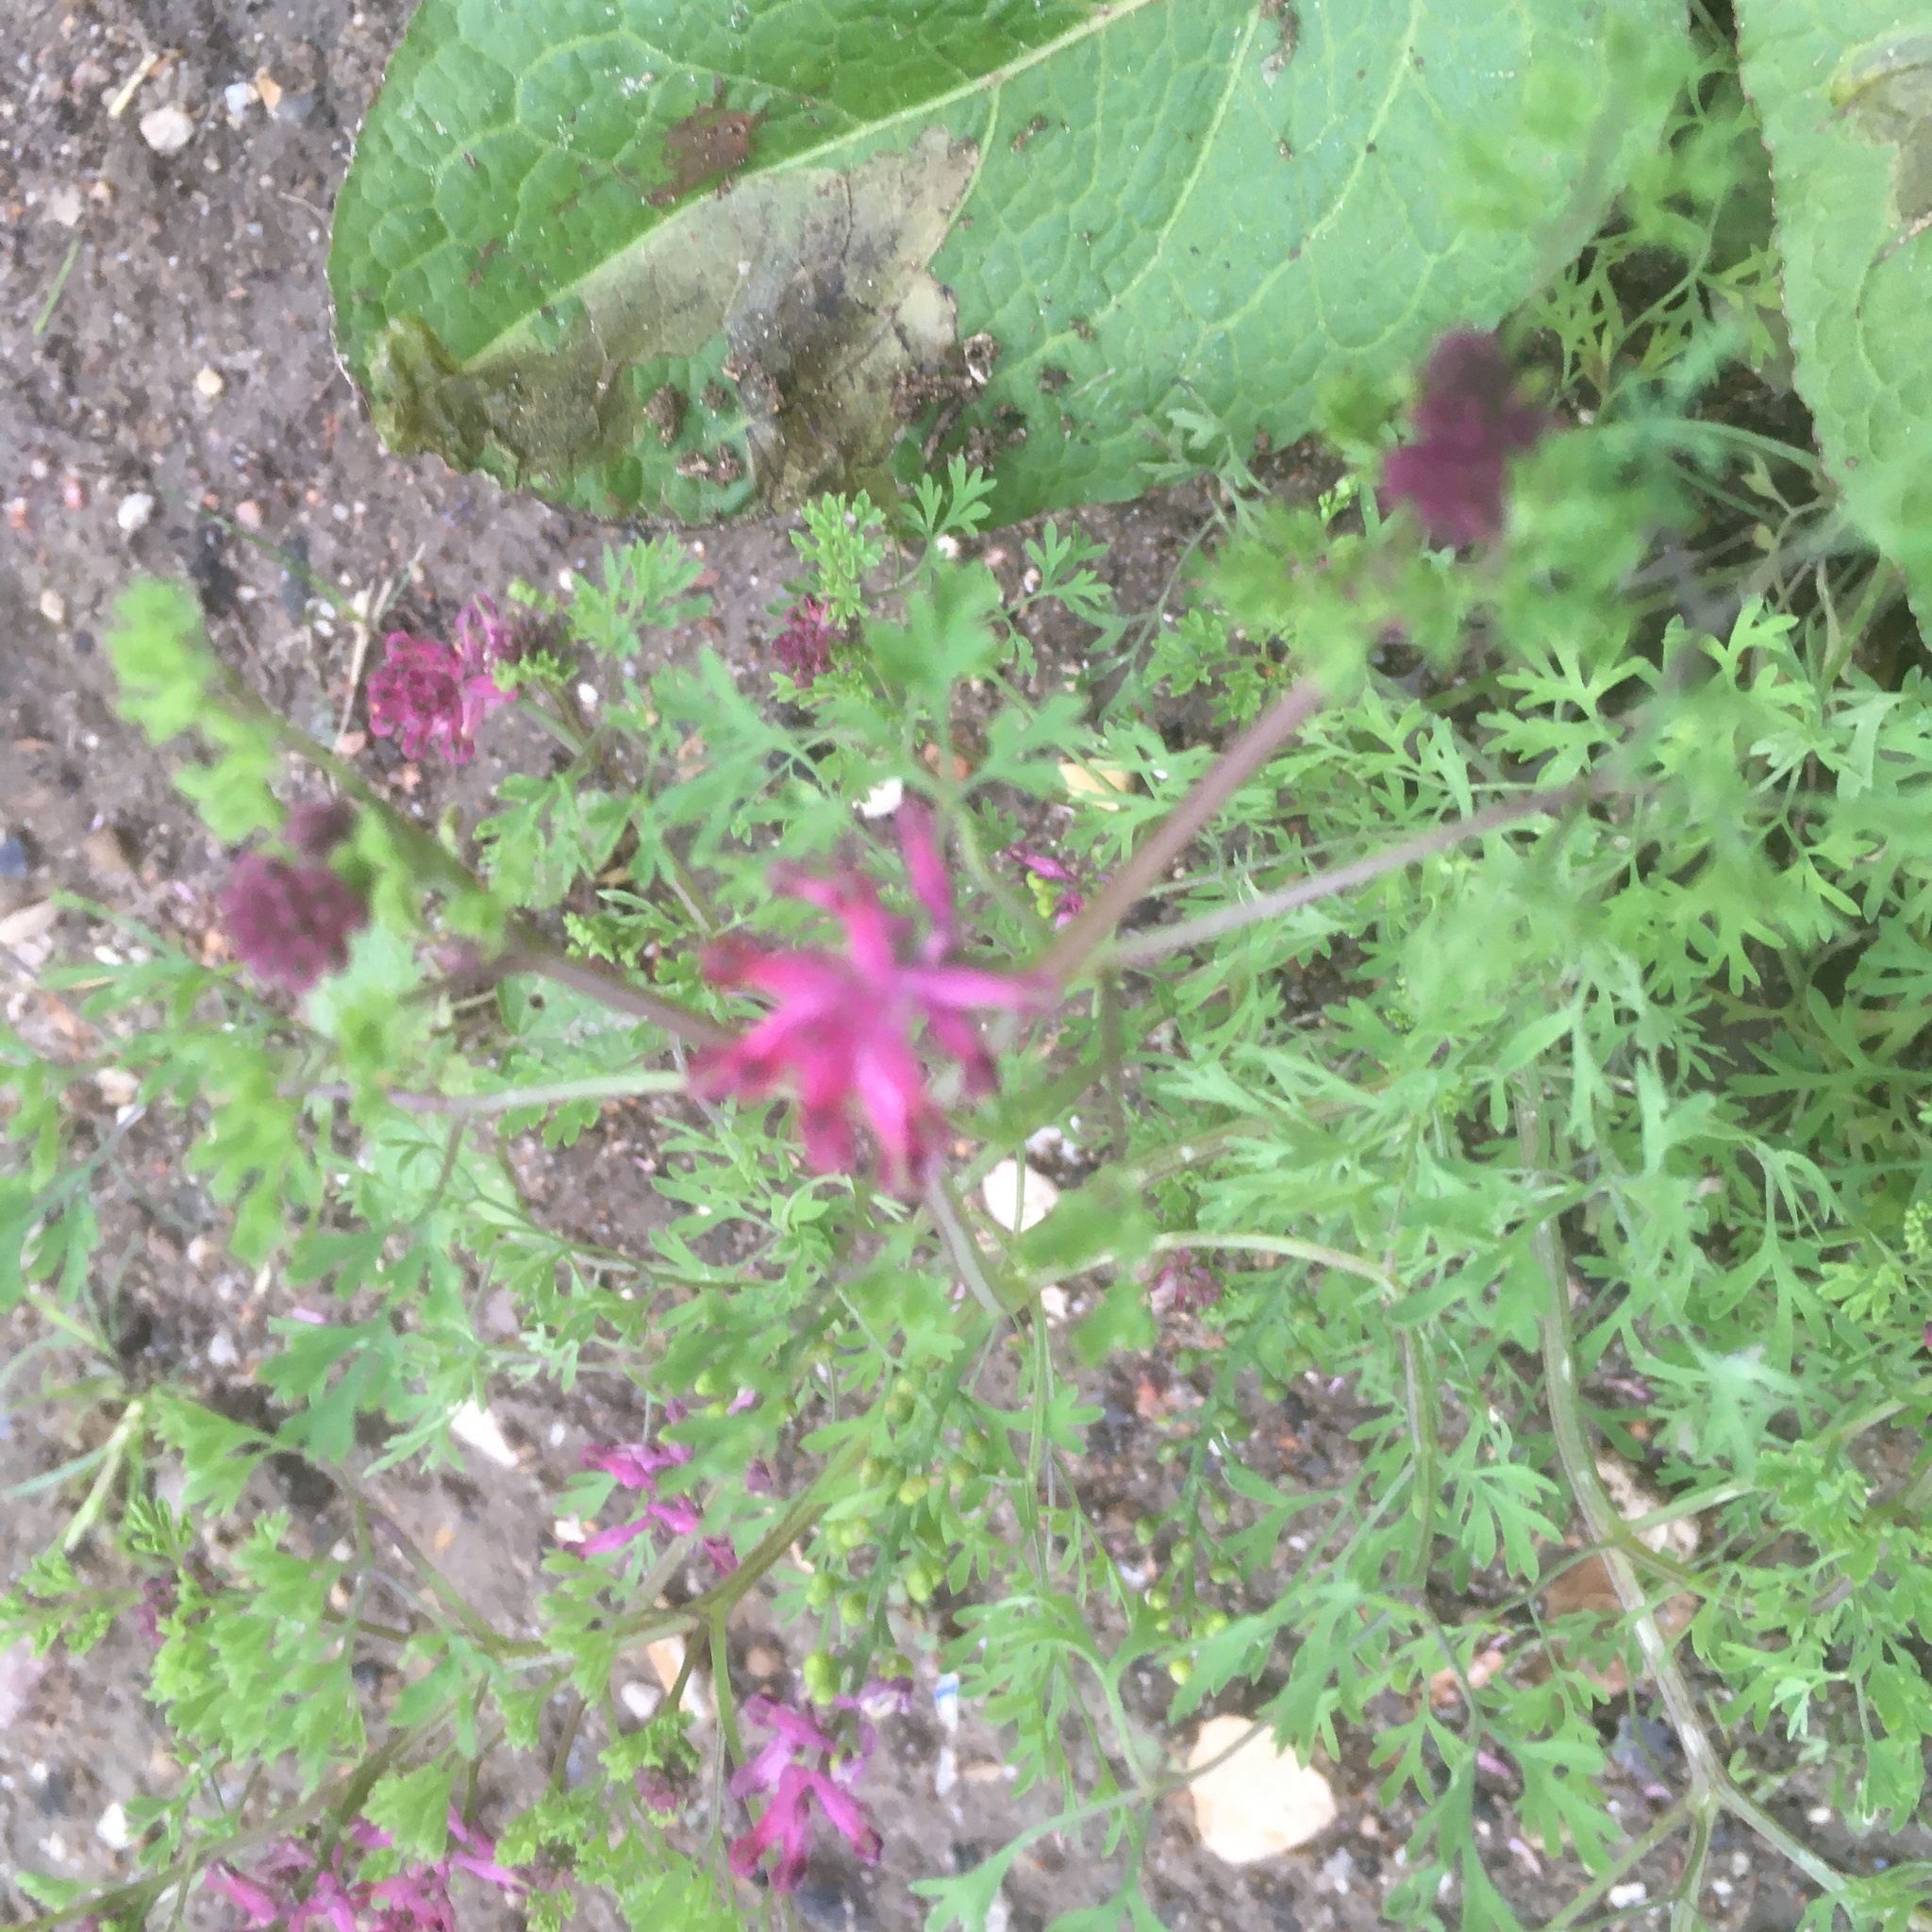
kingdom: Plantae
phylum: Tracheophyta
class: Magnoliopsida
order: Ranunculales
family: Papaveraceae
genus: Fumaria
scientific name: Fumaria officinalis
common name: Common fumitory
